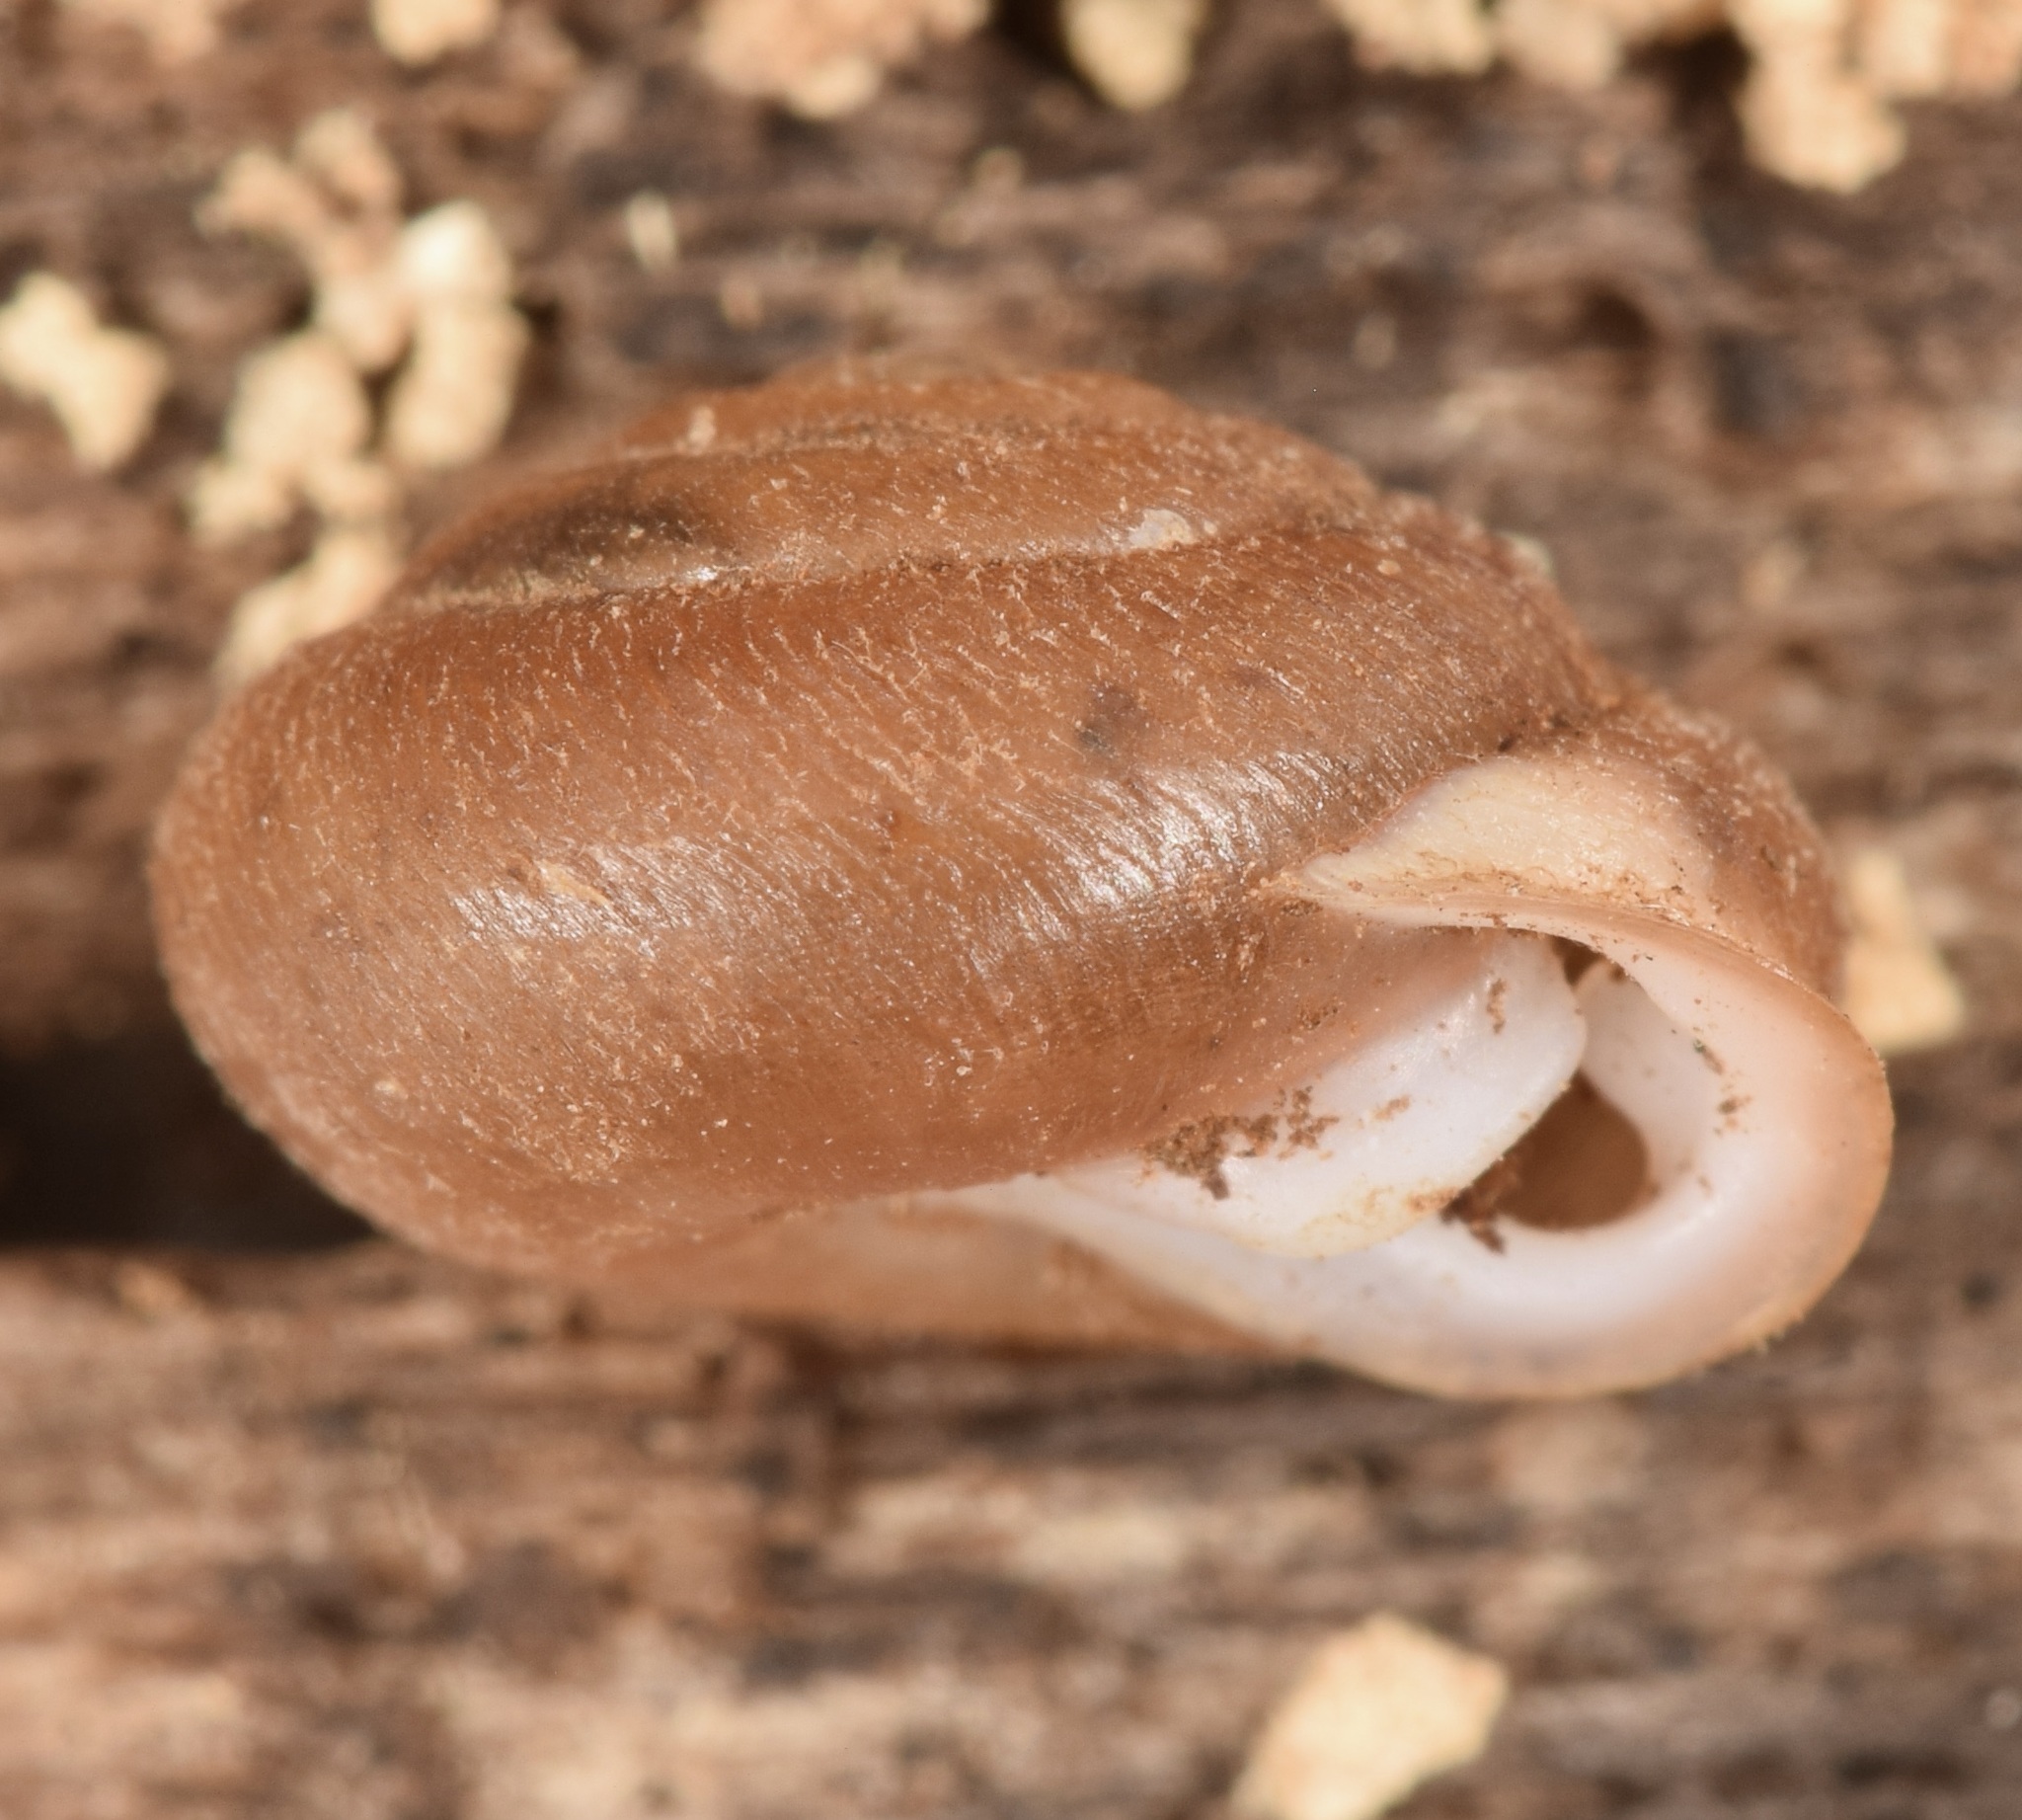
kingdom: Animalia
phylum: Mollusca
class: Gastropoda
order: Stylommatophora
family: Polygyridae
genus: Inflectarius
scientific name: Inflectarius inflectus
